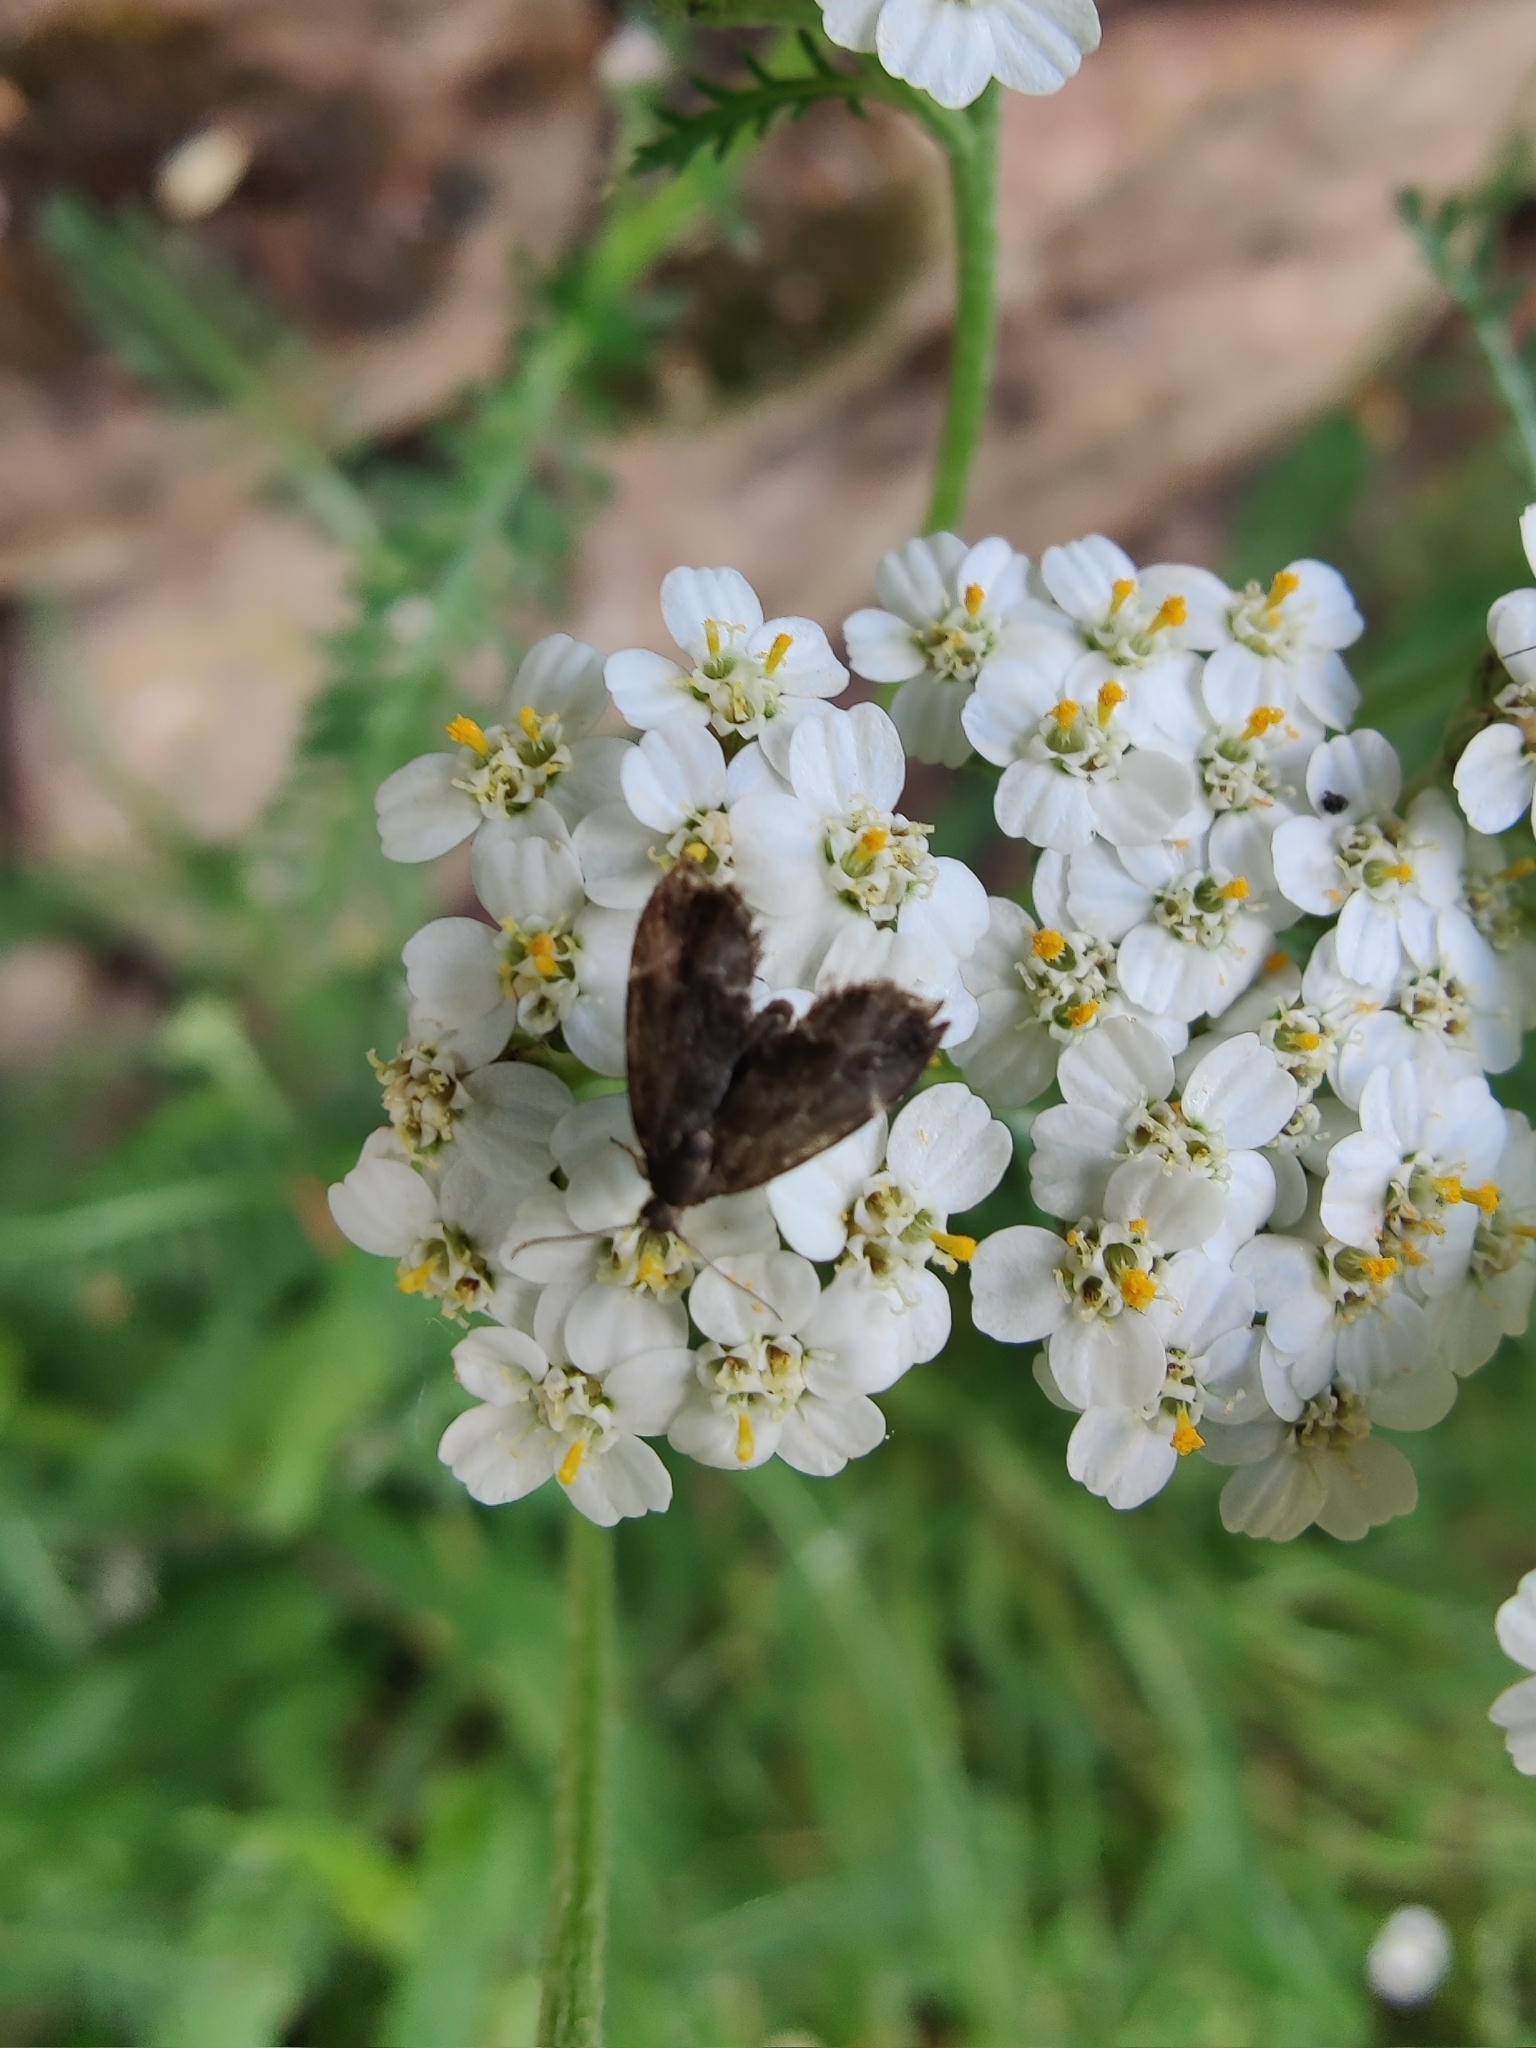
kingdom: Animalia
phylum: Arthropoda
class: Insecta
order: Lepidoptera
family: Choreutidae
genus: Anthophila
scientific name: Anthophila fabriciana
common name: Nettle-tap
